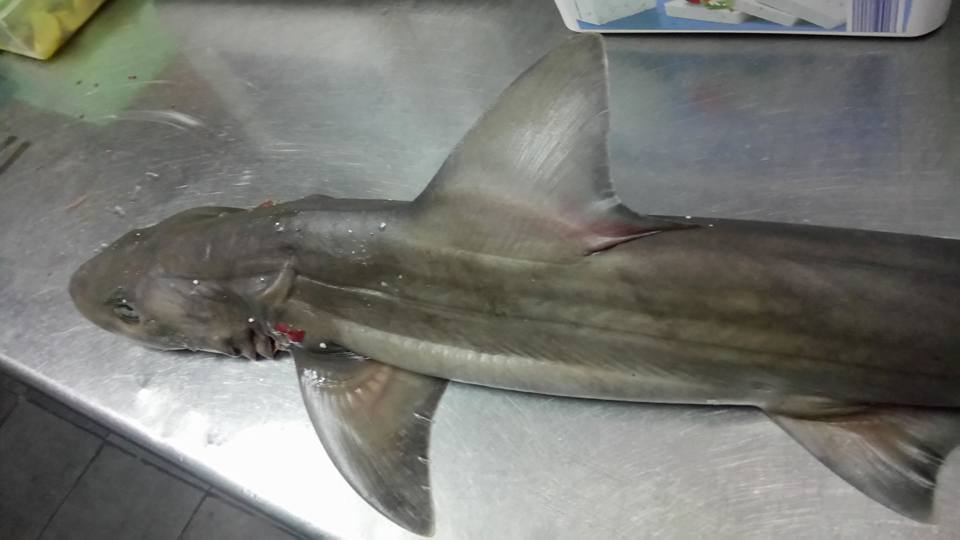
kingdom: Animalia
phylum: Chordata
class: Elasmobranchii
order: Carcharhiniformes
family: Triakidae
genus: Mustelus
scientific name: Mustelus mustelus
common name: Smooth-hound
